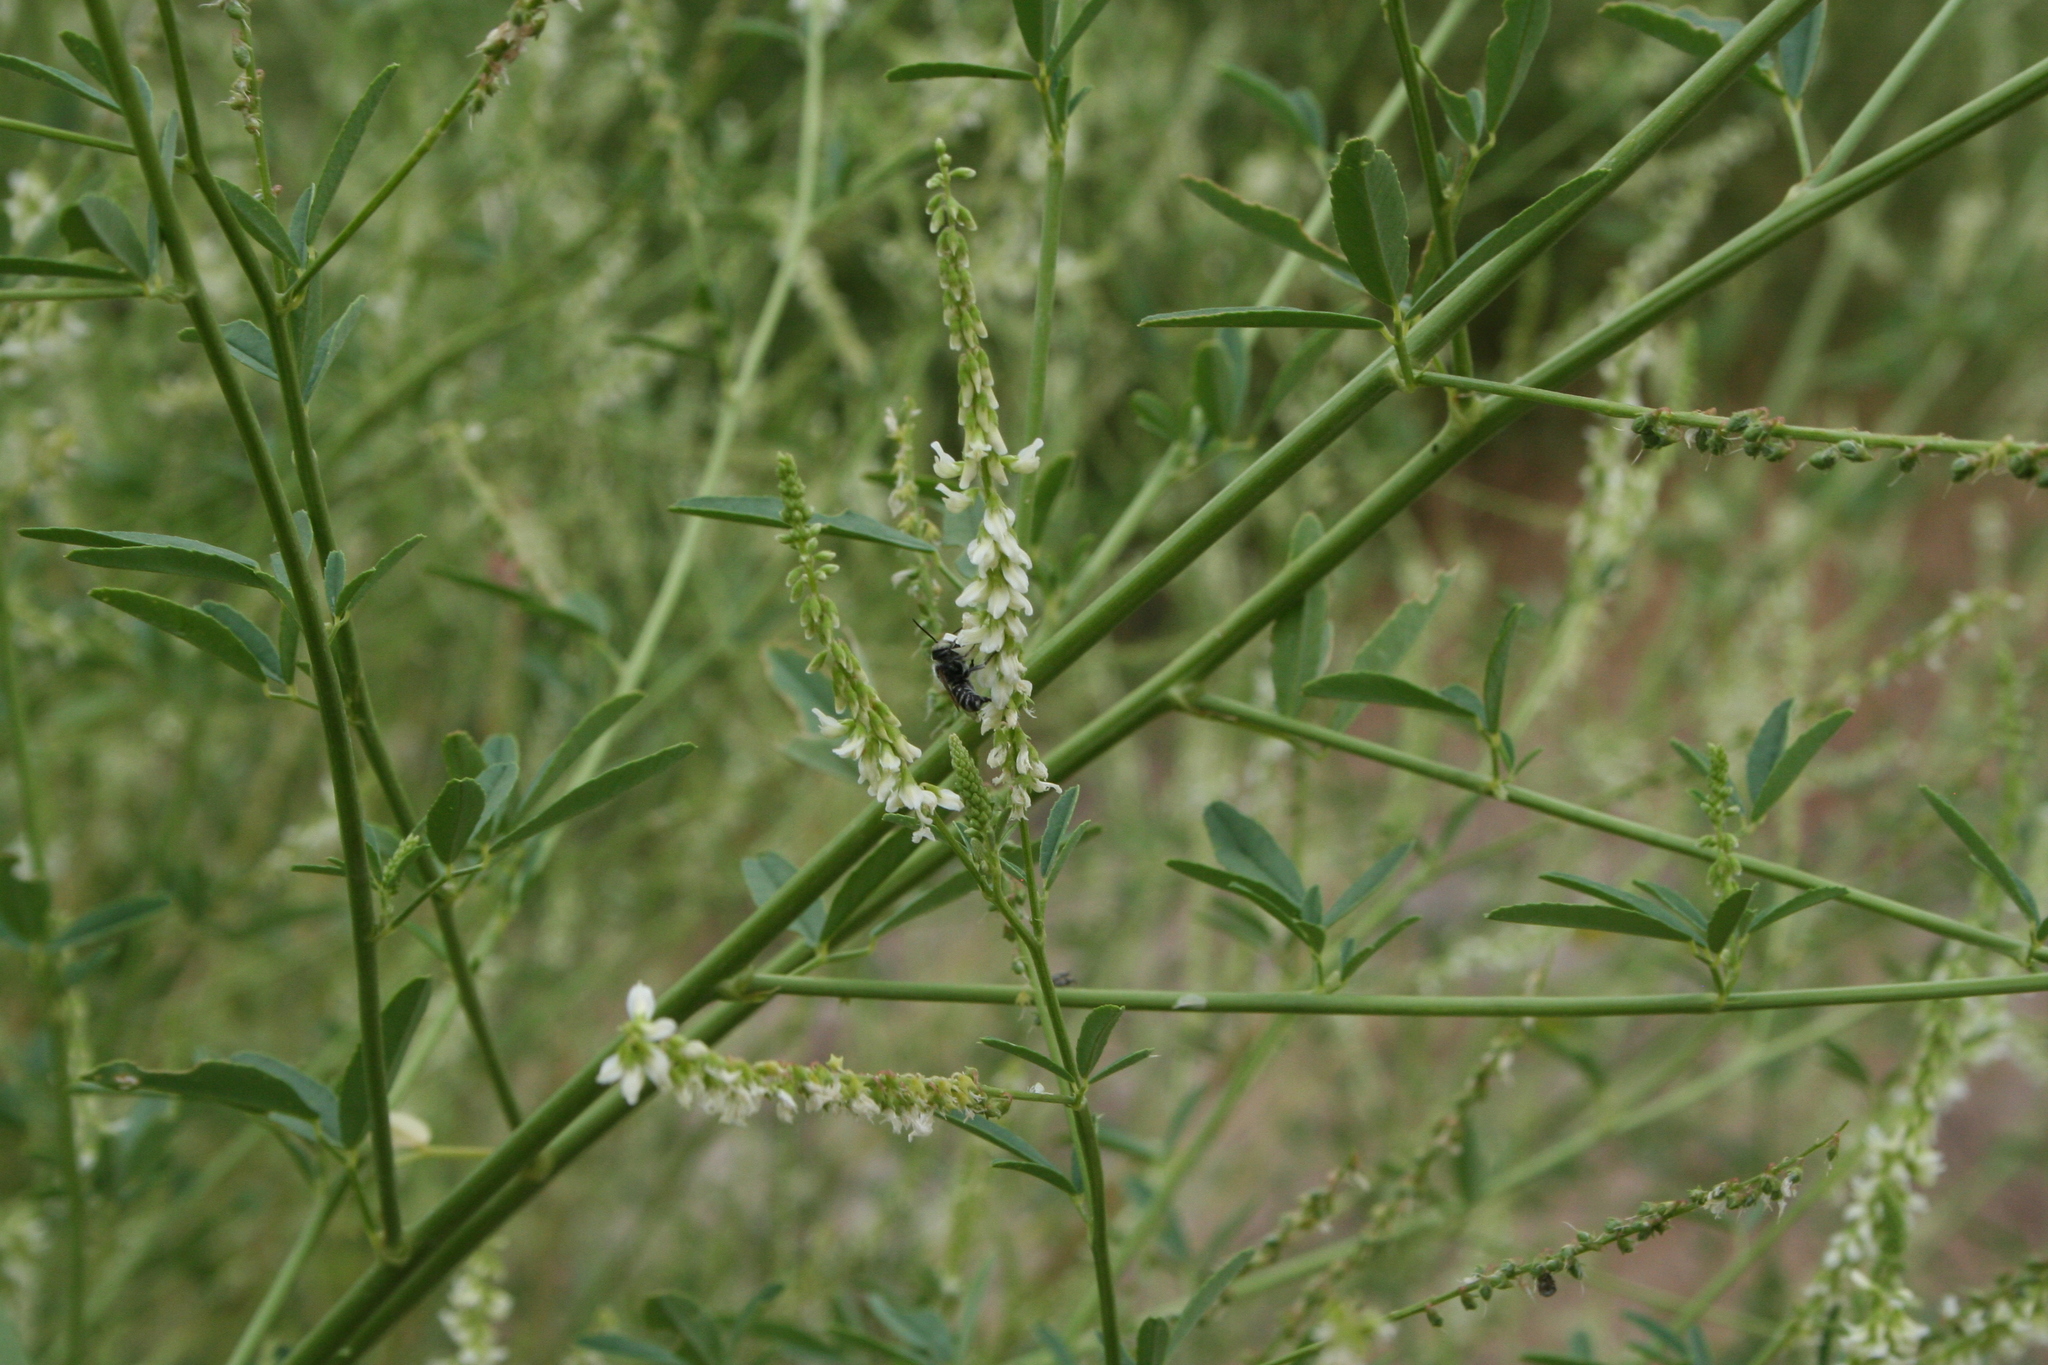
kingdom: Animalia
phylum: Arthropoda
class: Insecta
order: Hymenoptera
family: Megachilidae
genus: Megachile
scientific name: Megachile
